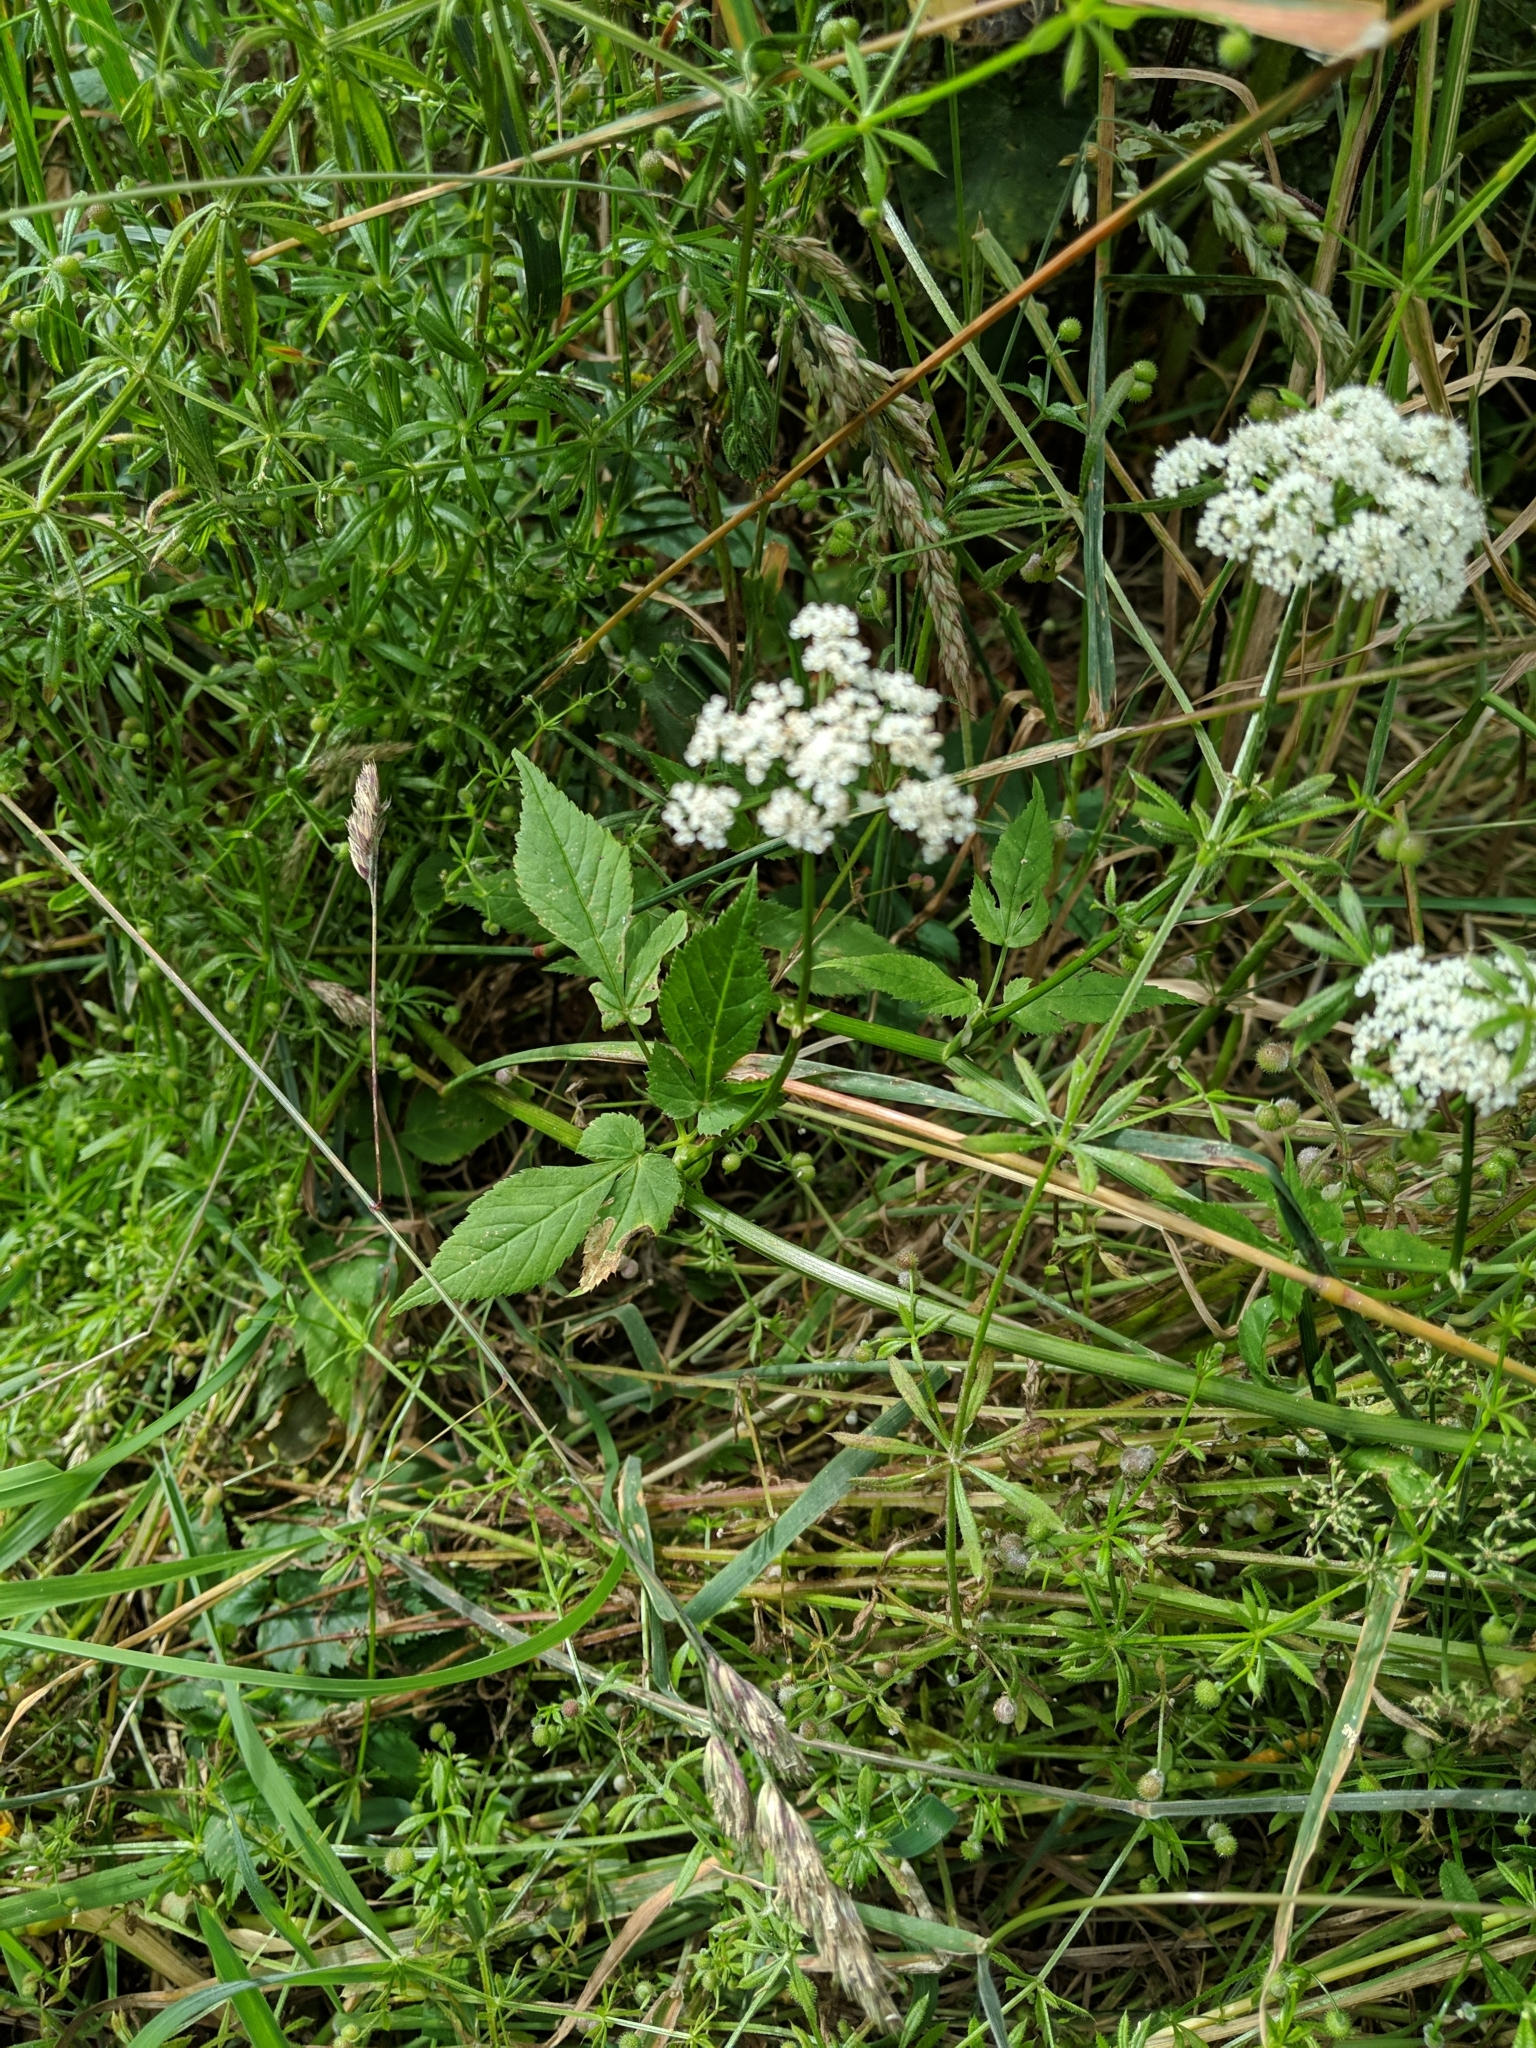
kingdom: Plantae
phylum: Tracheophyta
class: Magnoliopsida
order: Apiales
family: Apiaceae
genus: Aegopodium
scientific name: Aegopodium podagraria
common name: Ground-elder
